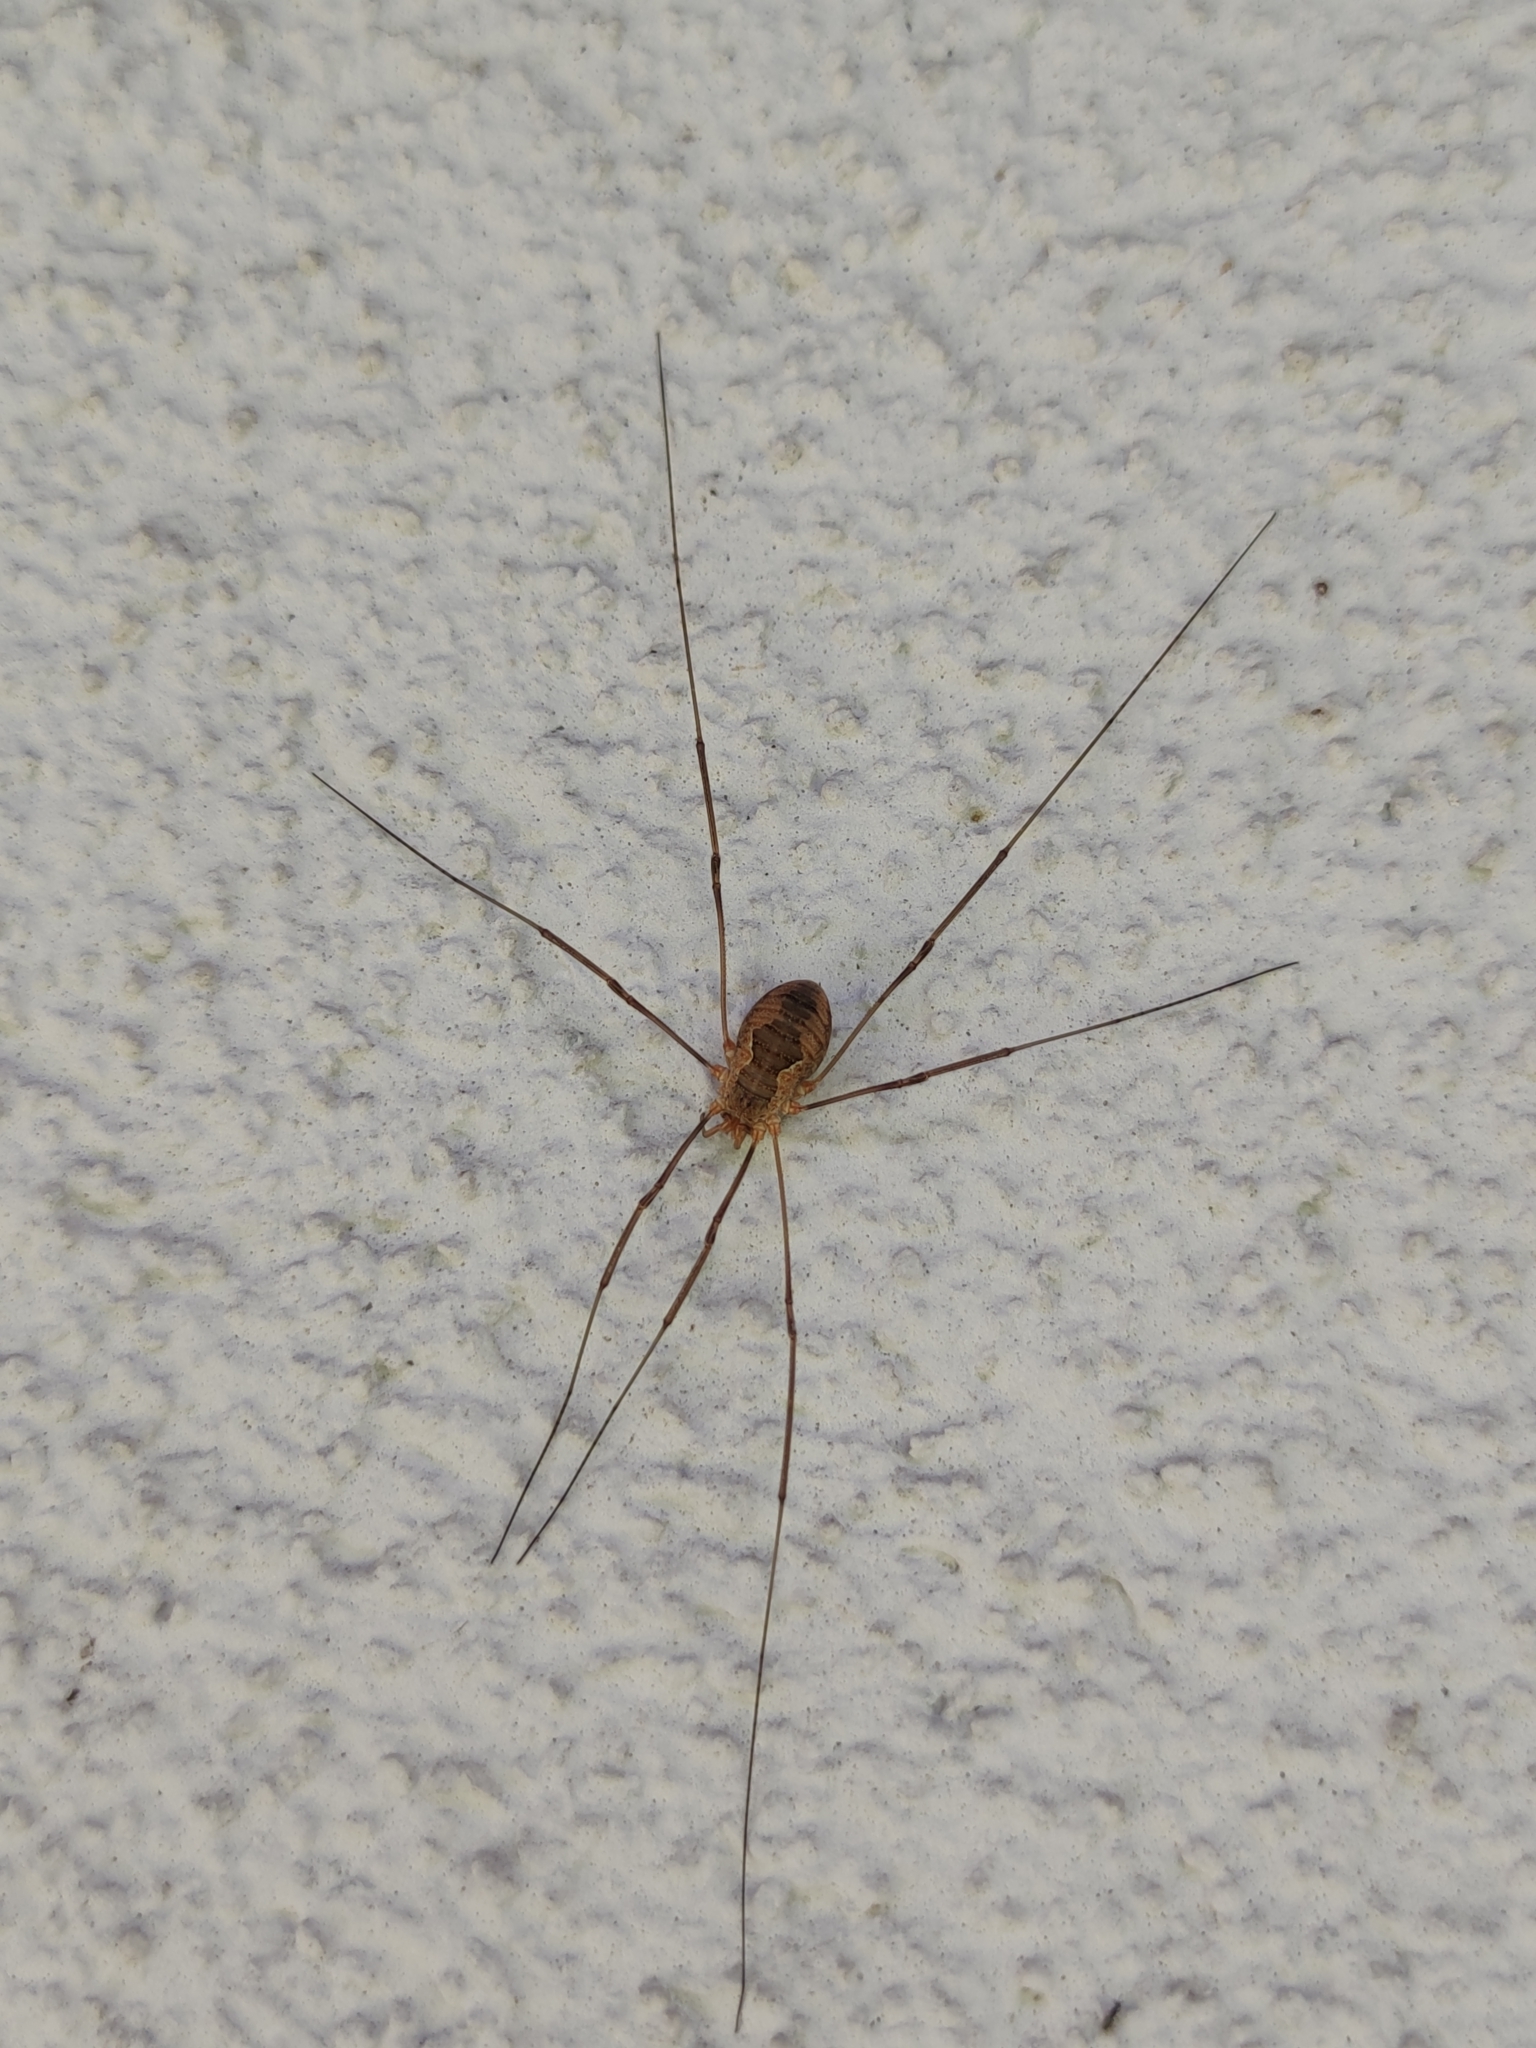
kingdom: Animalia
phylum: Arthropoda
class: Arachnida
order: Opiliones
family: Phalangiidae
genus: Phalangium
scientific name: Phalangium opilio
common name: Daddy longleg
